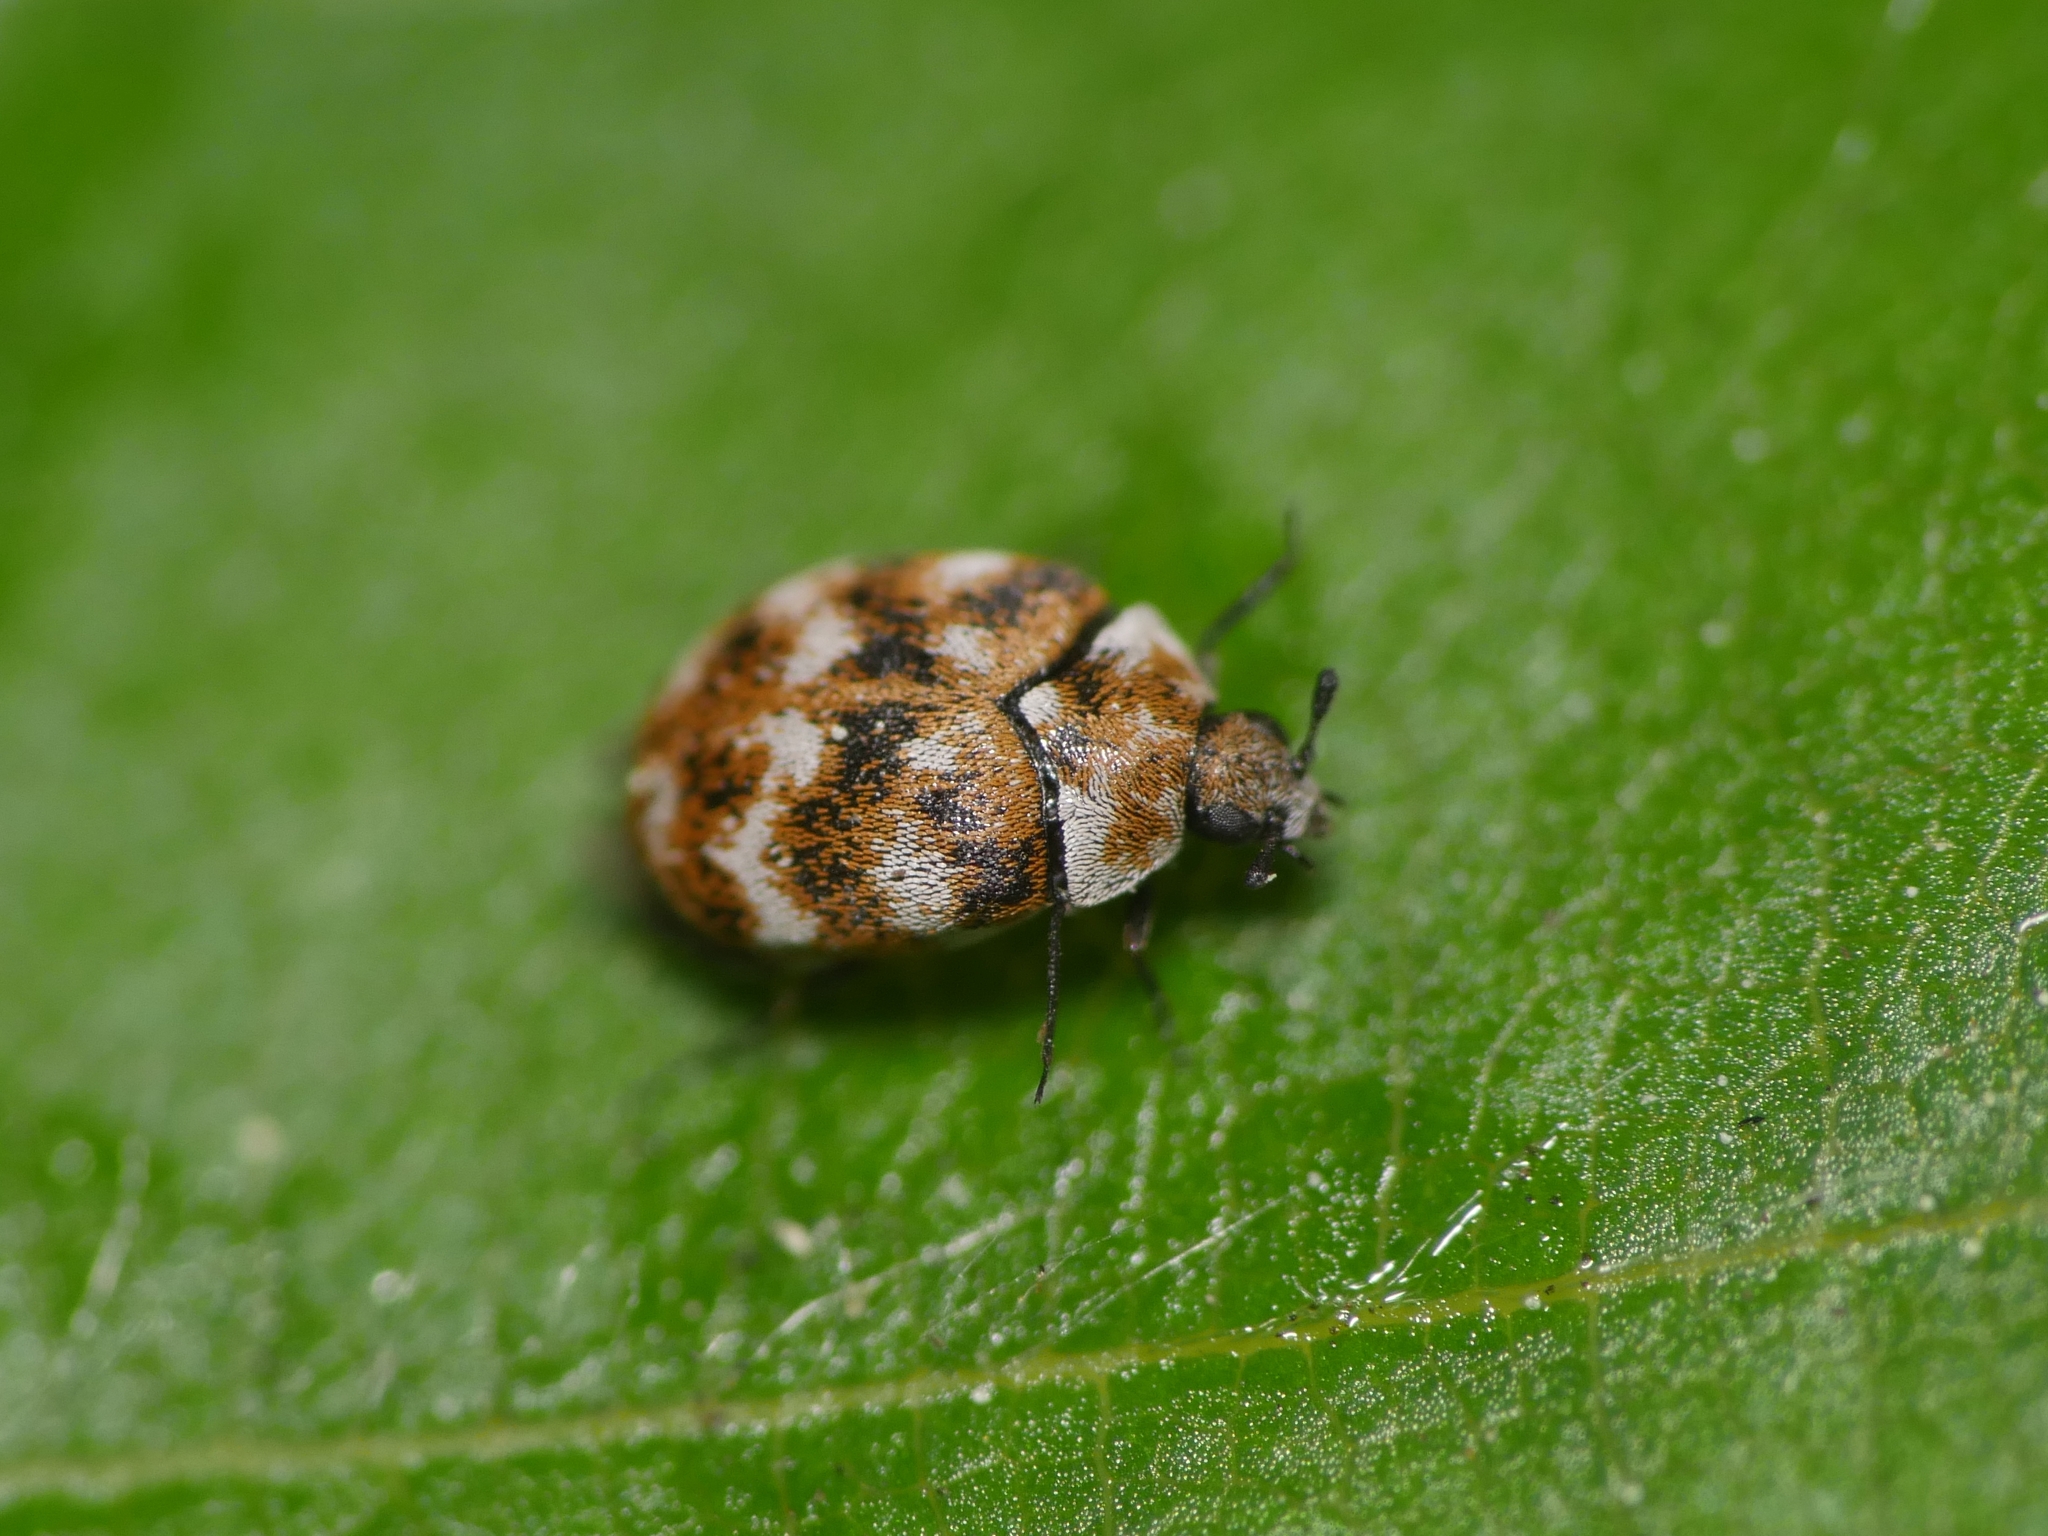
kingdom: Animalia
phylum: Arthropoda
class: Insecta
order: Coleoptera
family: Dermestidae
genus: Anthrenus
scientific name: Anthrenus verbasci
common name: Varied carpet beetle
